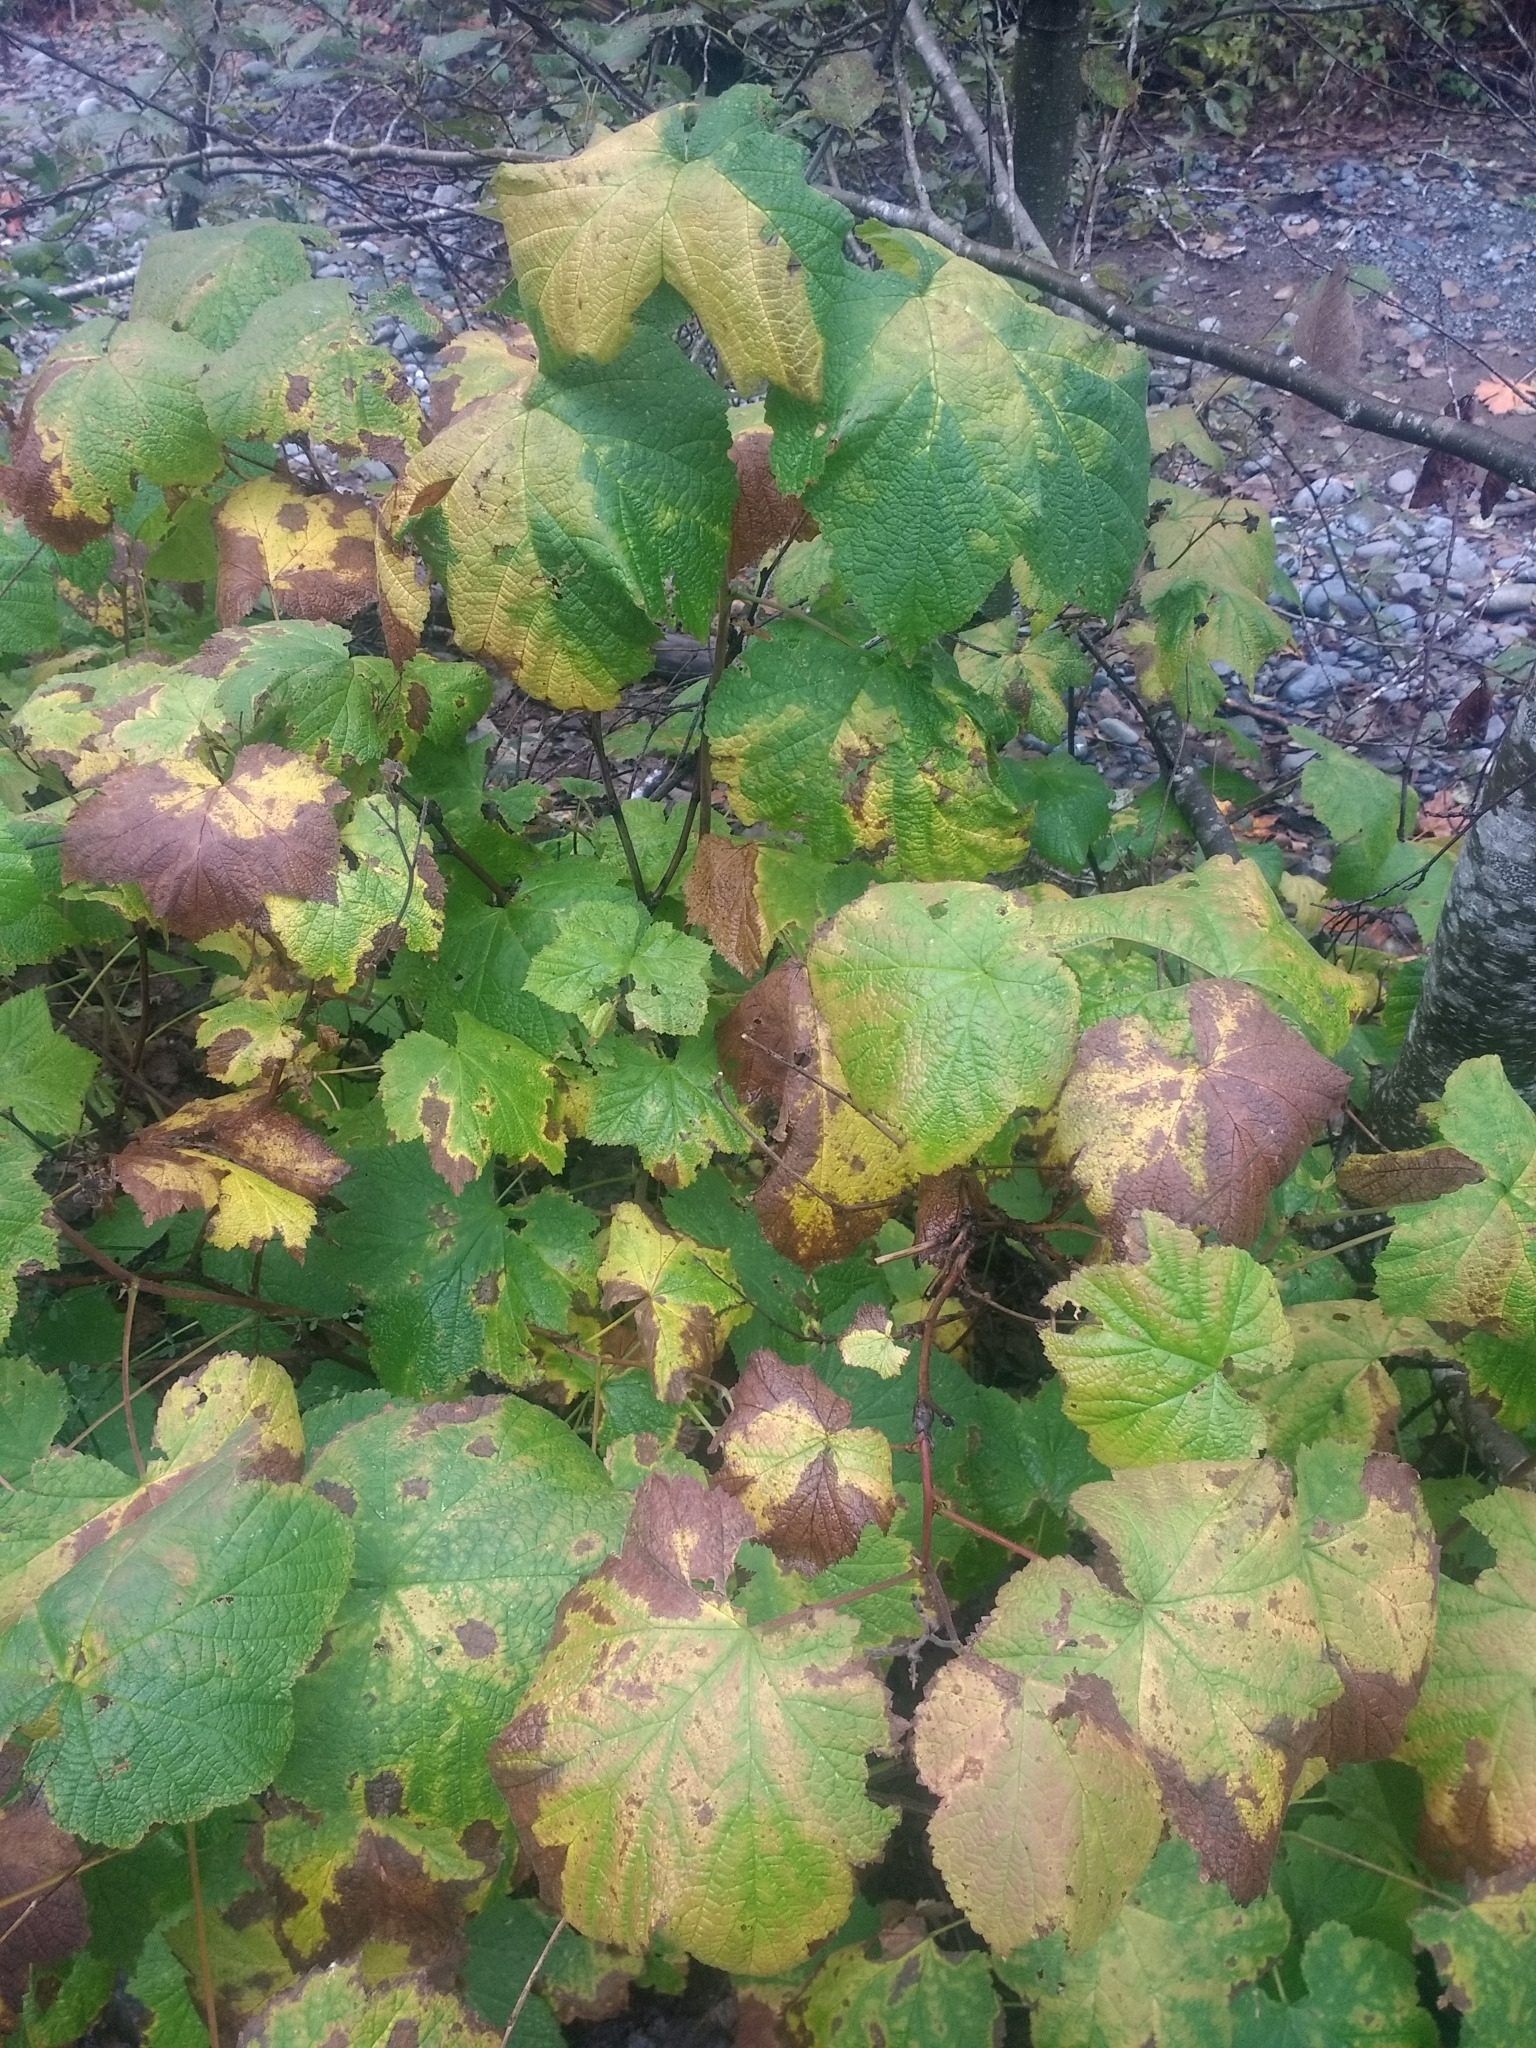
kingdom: Plantae
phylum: Tracheophyta
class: Magnoliopsida
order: Rosales
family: Rosaceae
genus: Rubus
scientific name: Rubus parviflorus
